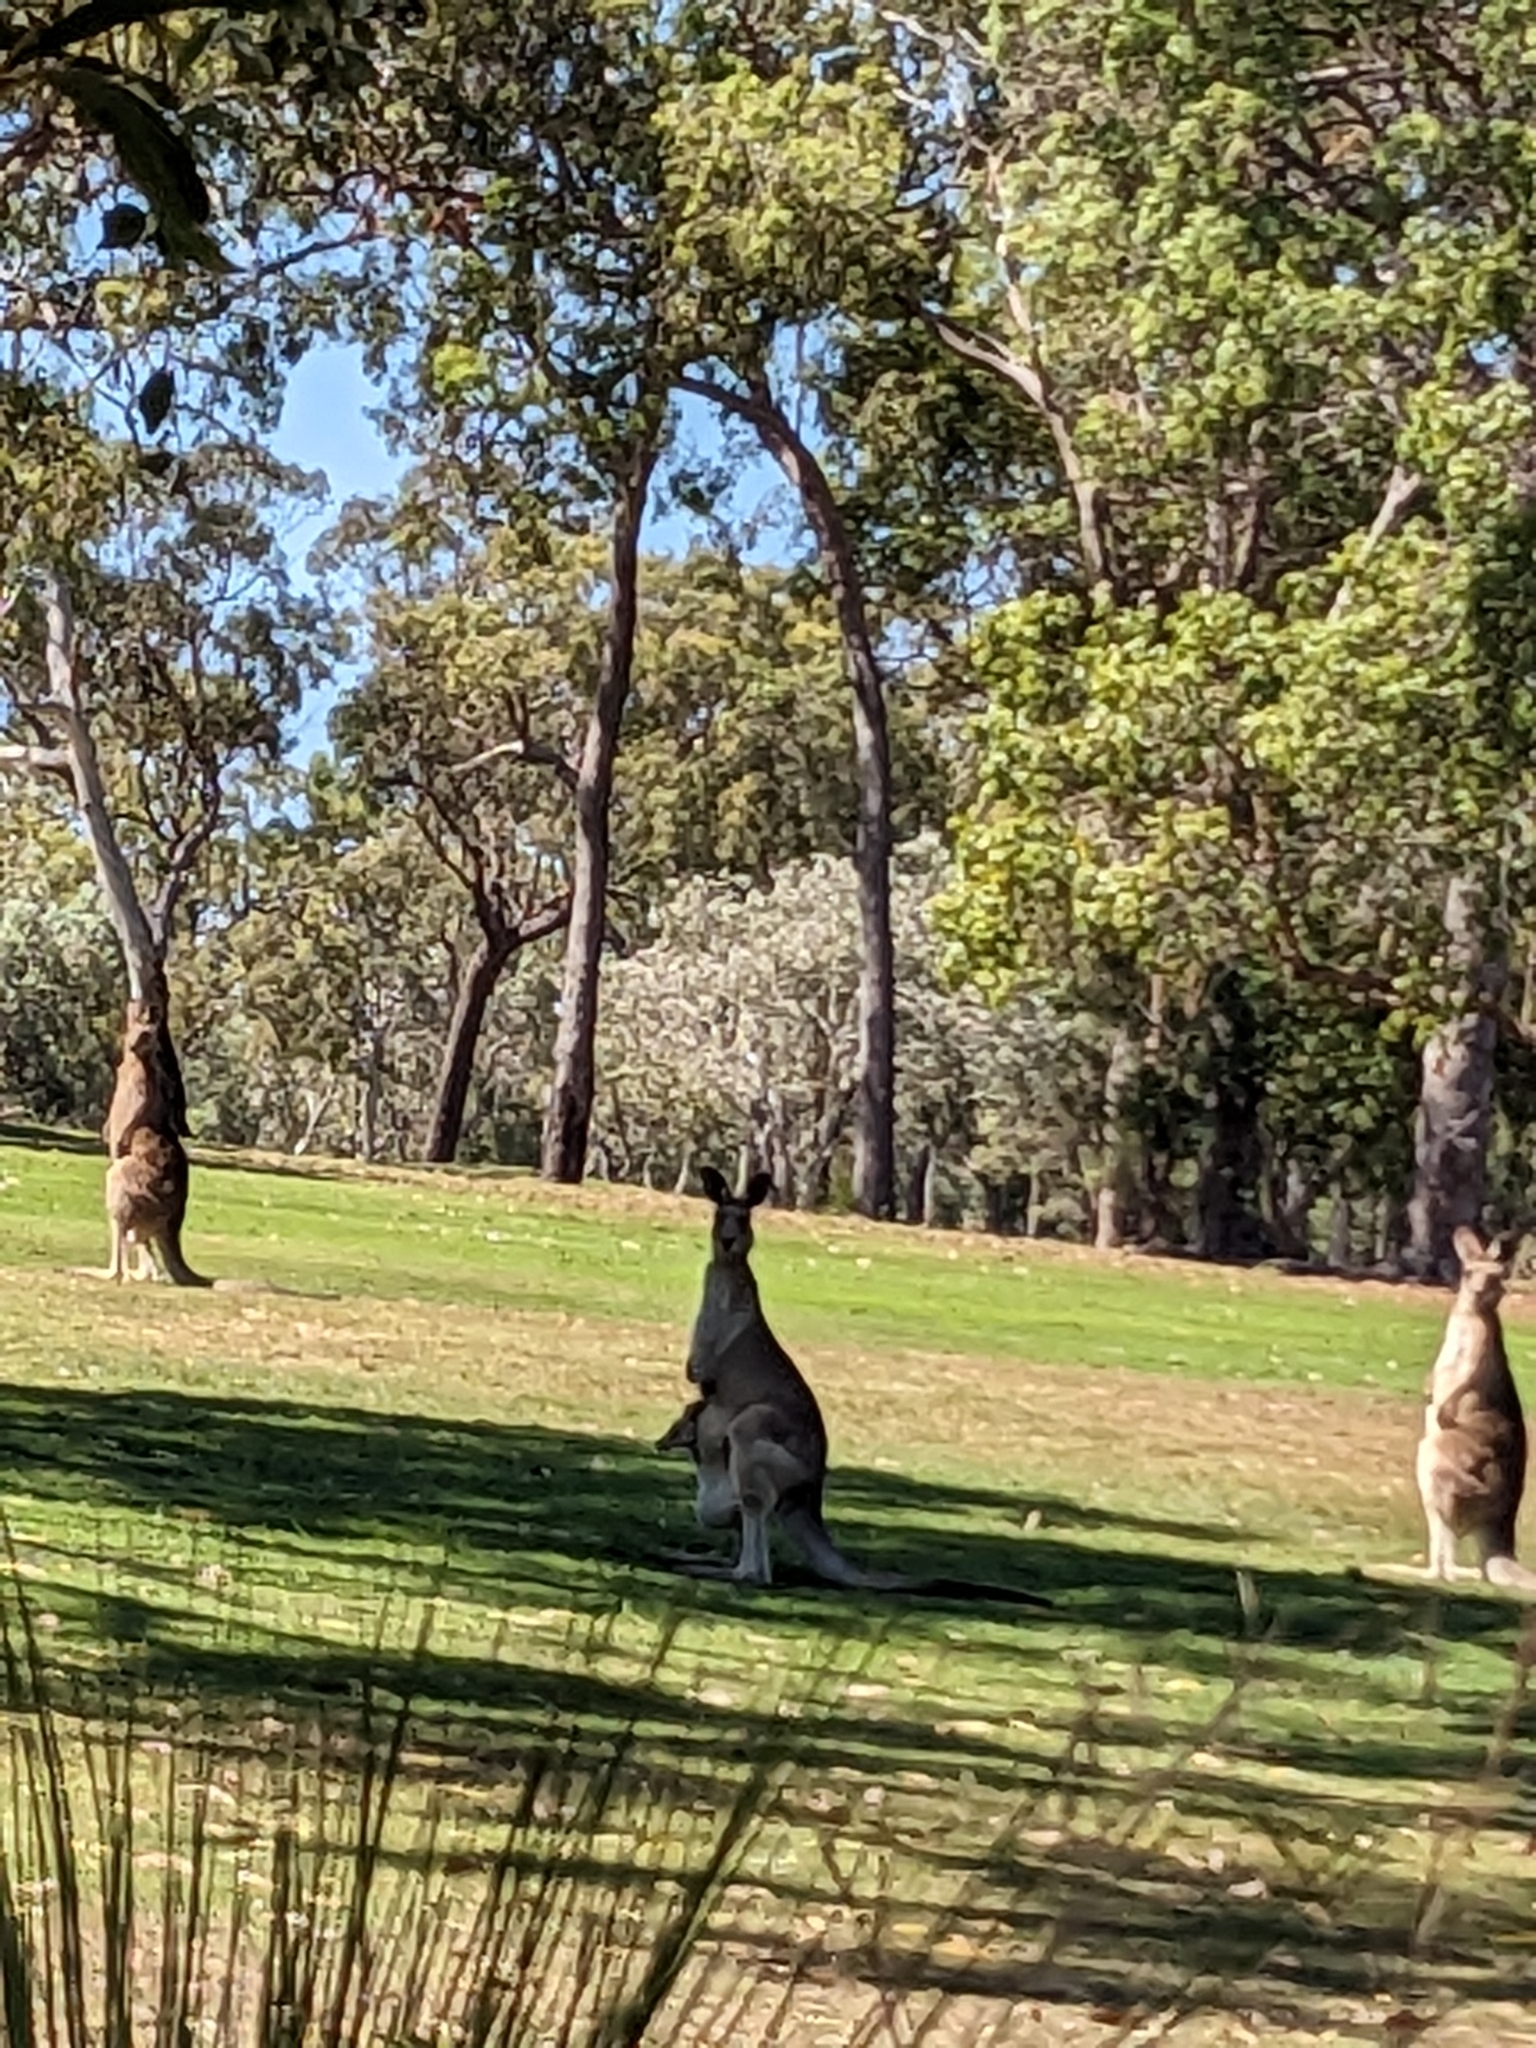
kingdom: Animalia
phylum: Chordata
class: Mammalia
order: Diprotodontia
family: Macropodidae
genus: Macropus
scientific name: Macropus giganteus
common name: Eastern grey kangaroo
